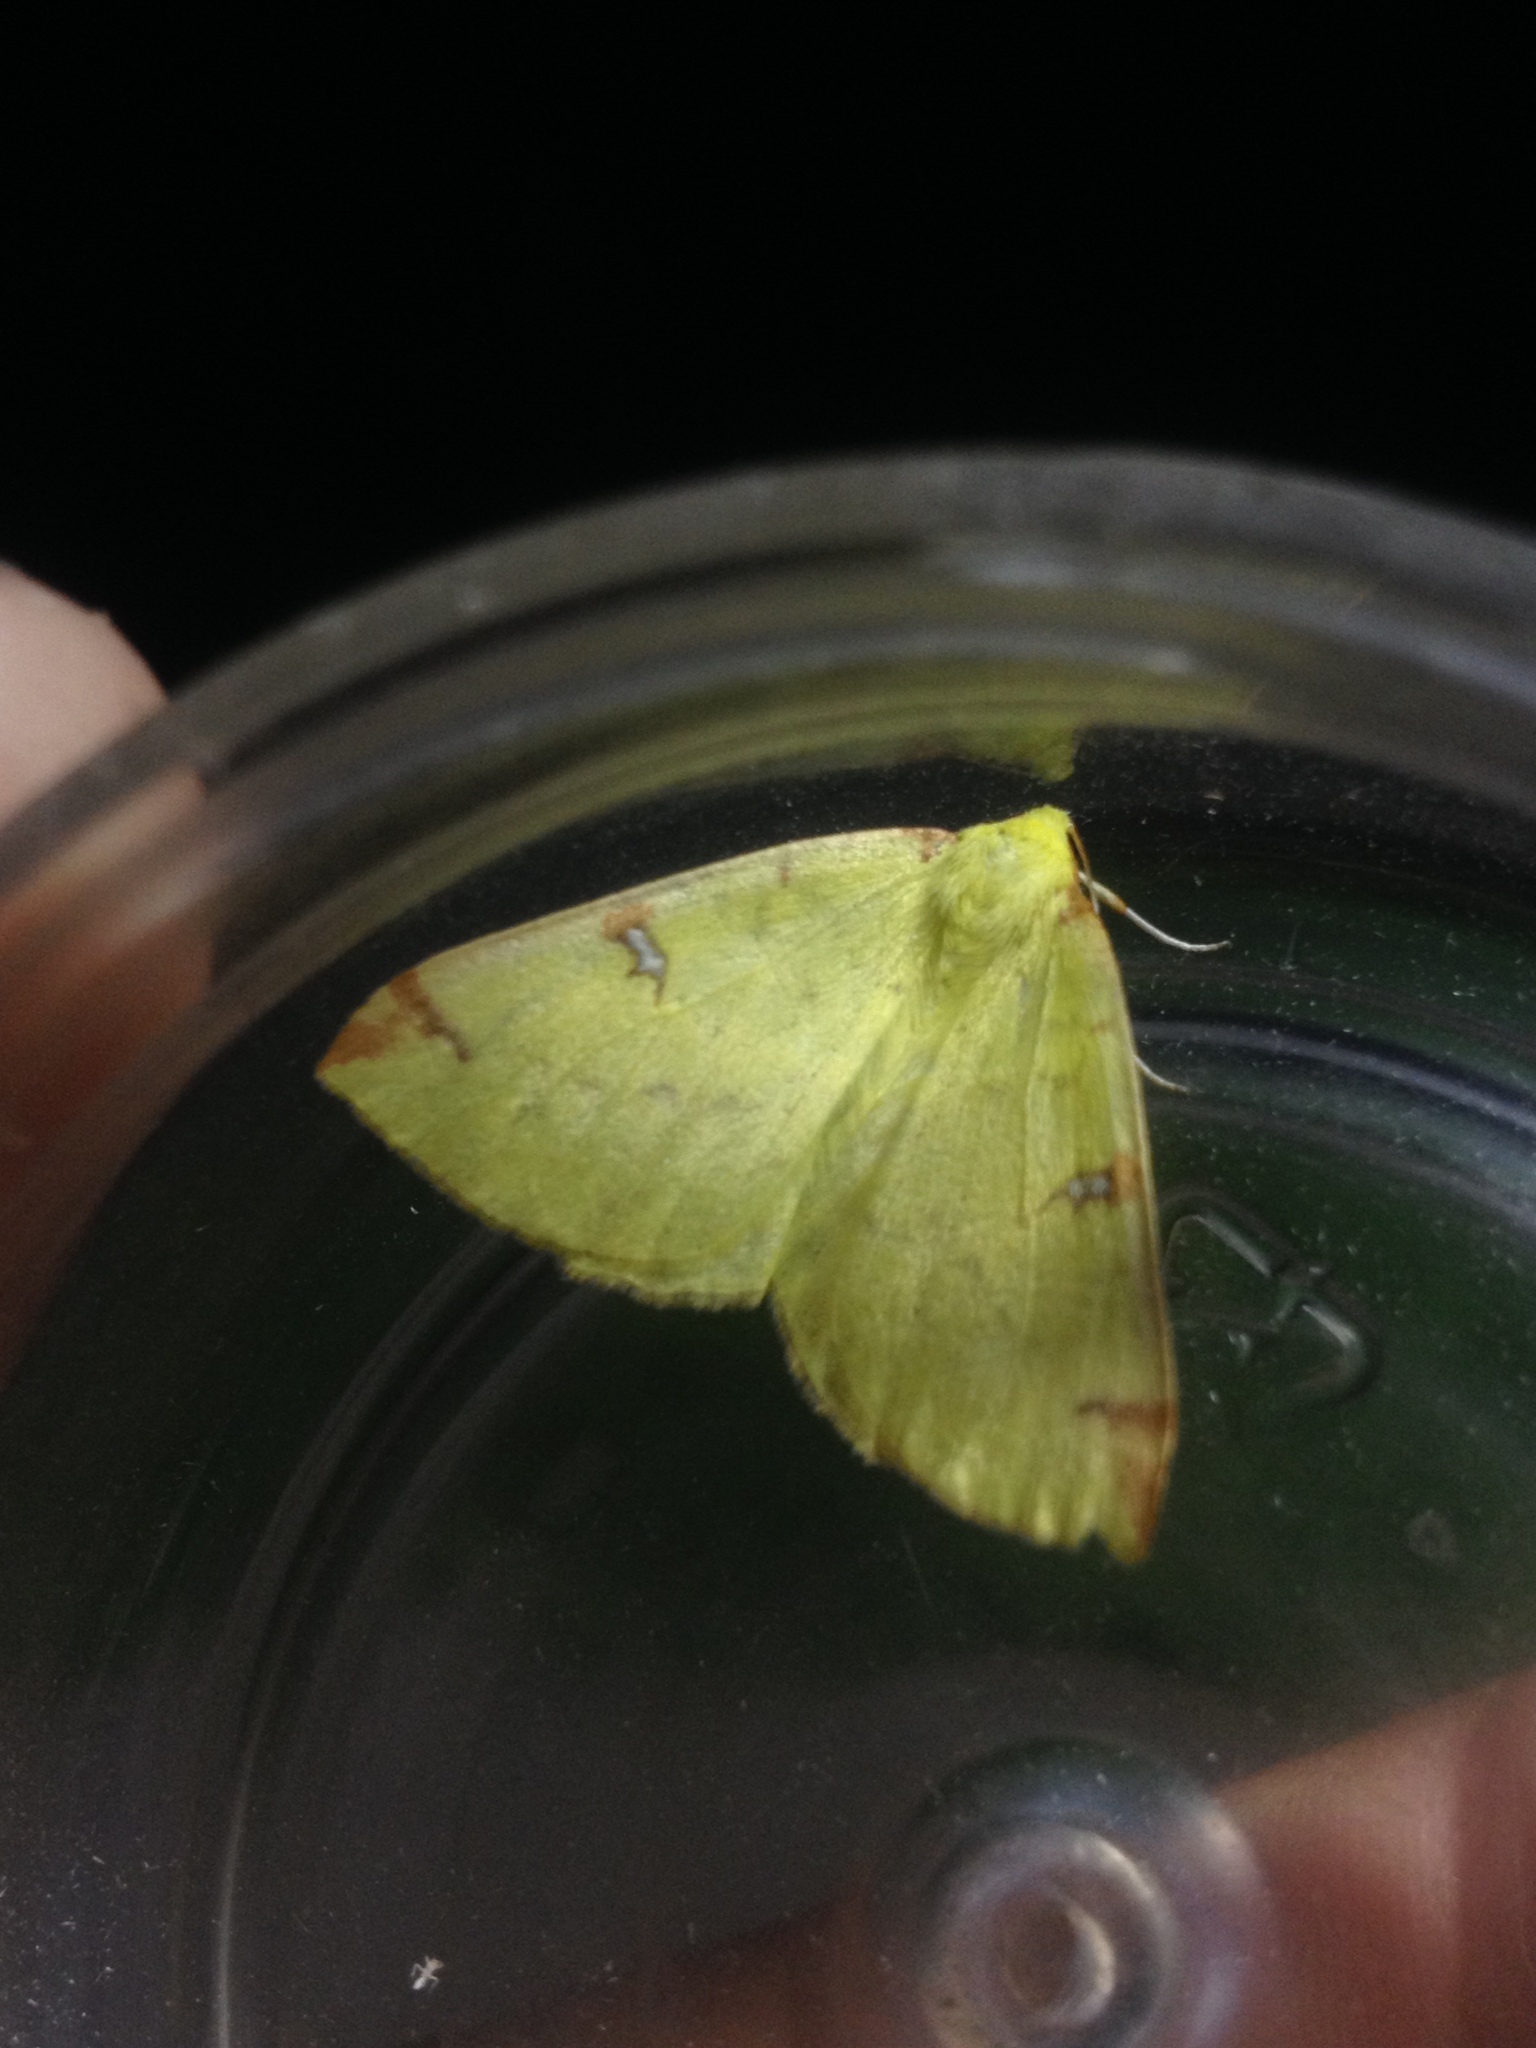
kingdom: Animalia
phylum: Arthropoda
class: Insecta
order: Lepidoptera
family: Geometridae
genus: Opisthograptis
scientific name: Opisthograptis luteolata
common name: Brimstone moth
